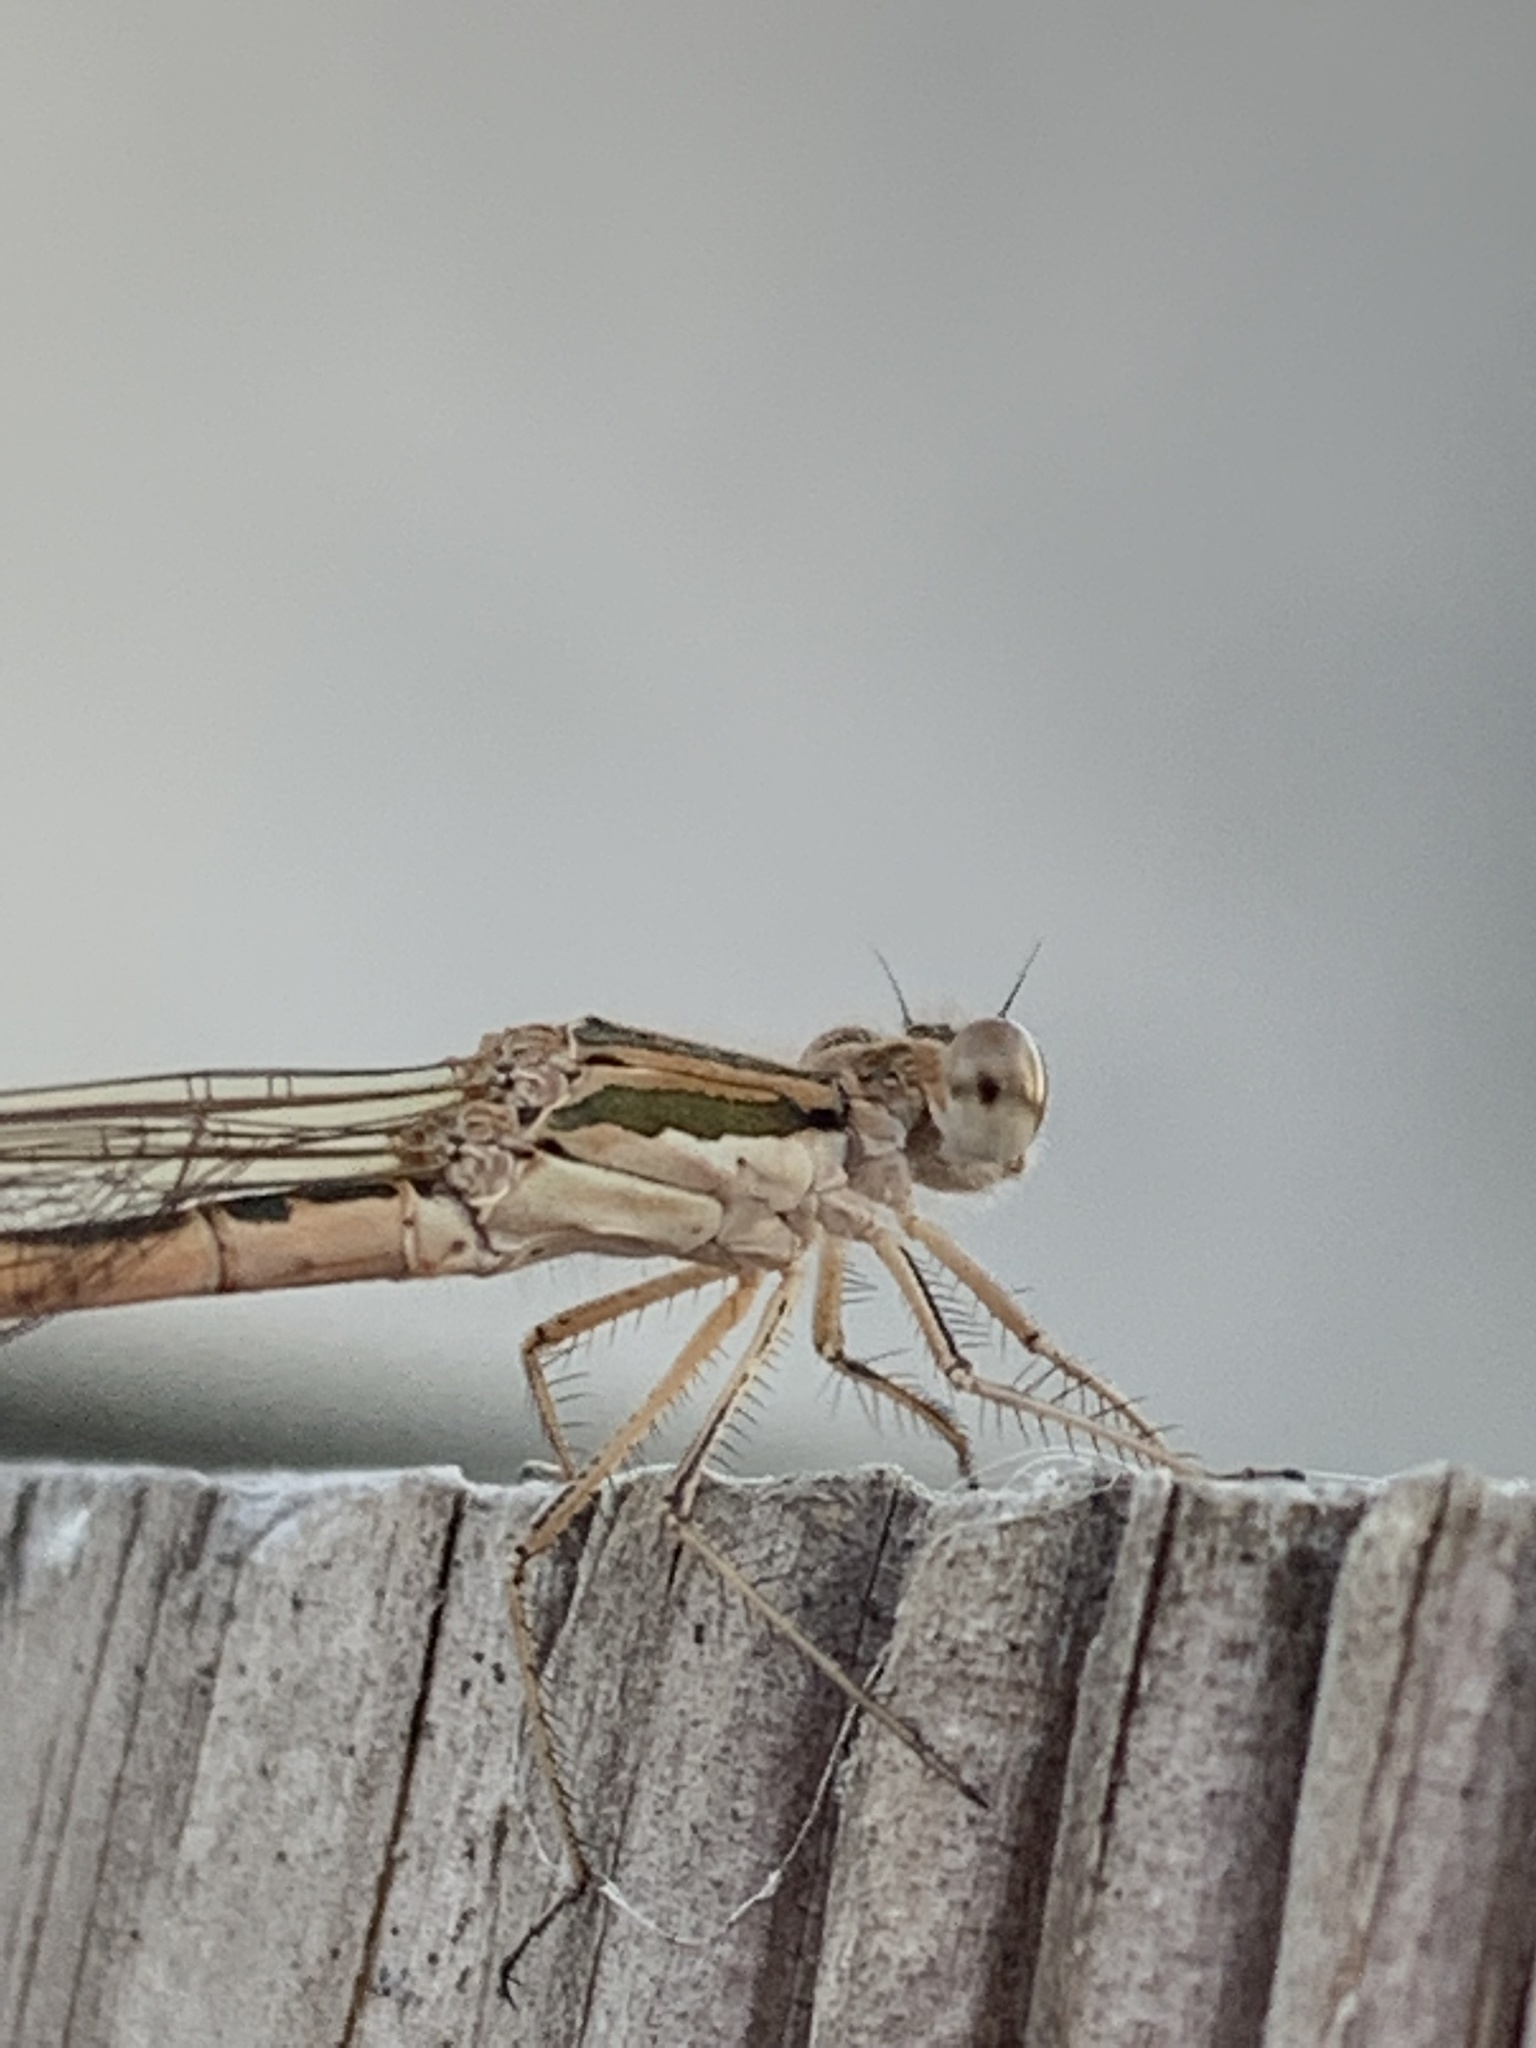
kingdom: Animalia
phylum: Arthropoda
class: Insecta
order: Odonata
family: Lestidae
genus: Sympecma
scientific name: Sympecma fusca
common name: Common winter damsel
